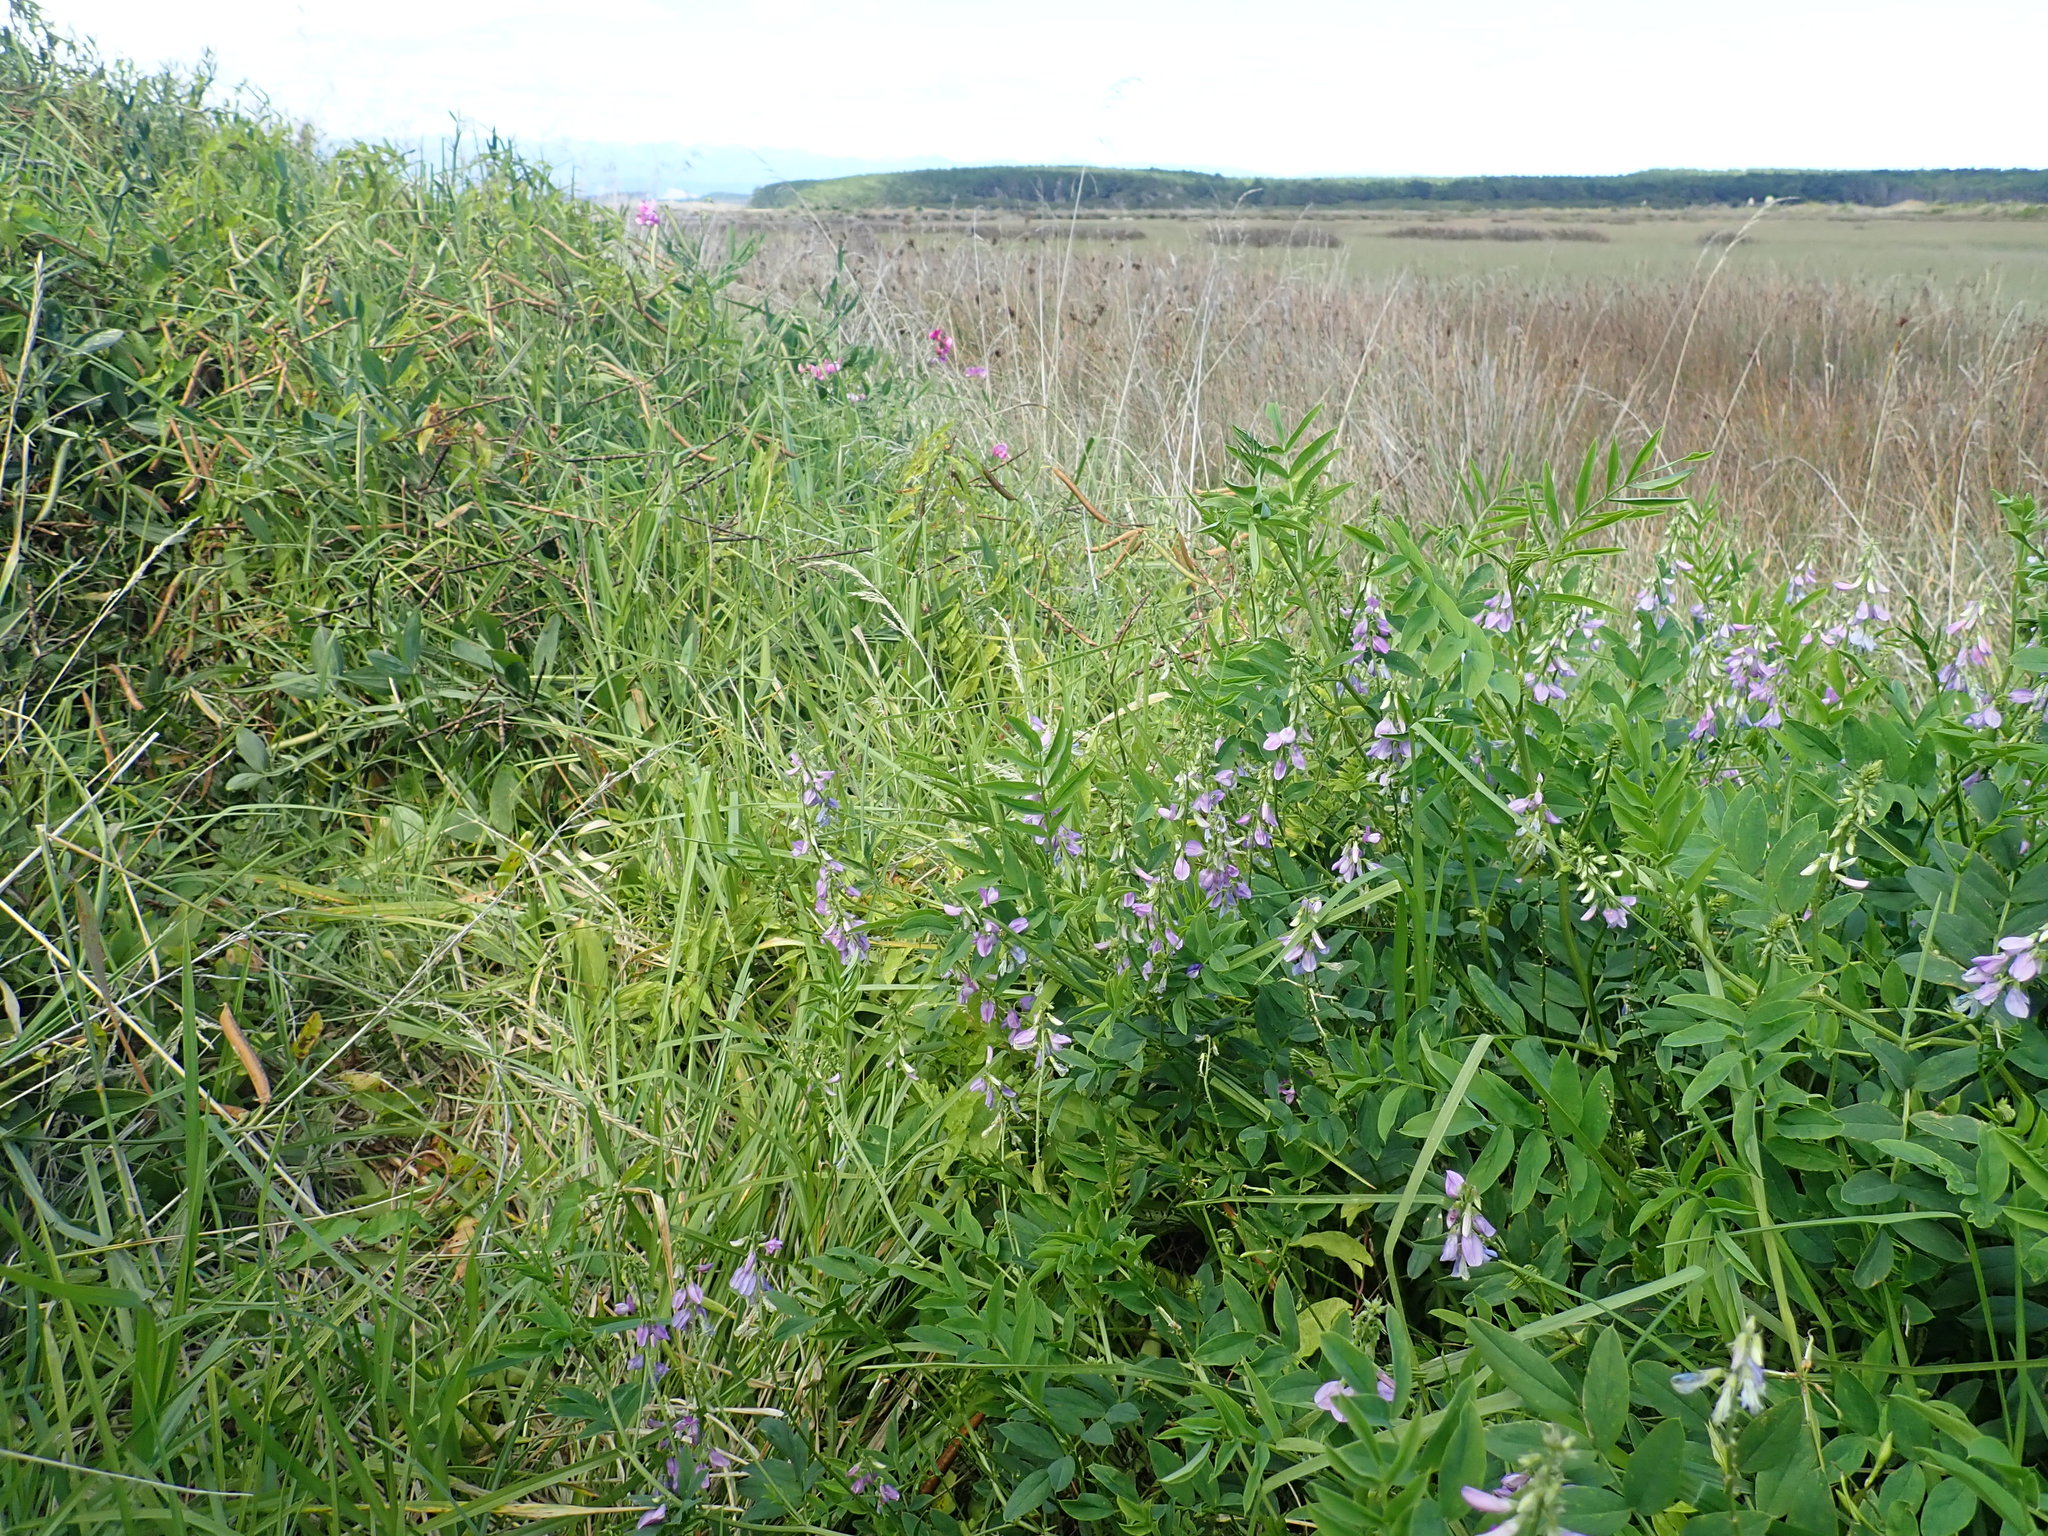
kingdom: Plantae
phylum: Tracheophyta
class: Magnoliopsida
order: Fabales
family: Fabaceae
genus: Galega
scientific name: Galega officinalis
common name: Goat's-rue
